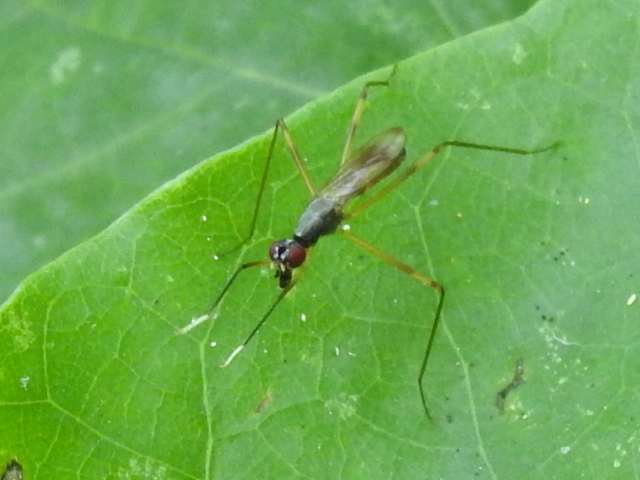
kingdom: Animalia
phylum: Arthropoda
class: Insecta
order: Diptera
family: Micropezidae
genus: Rainieria
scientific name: Rainieria antennaepes
